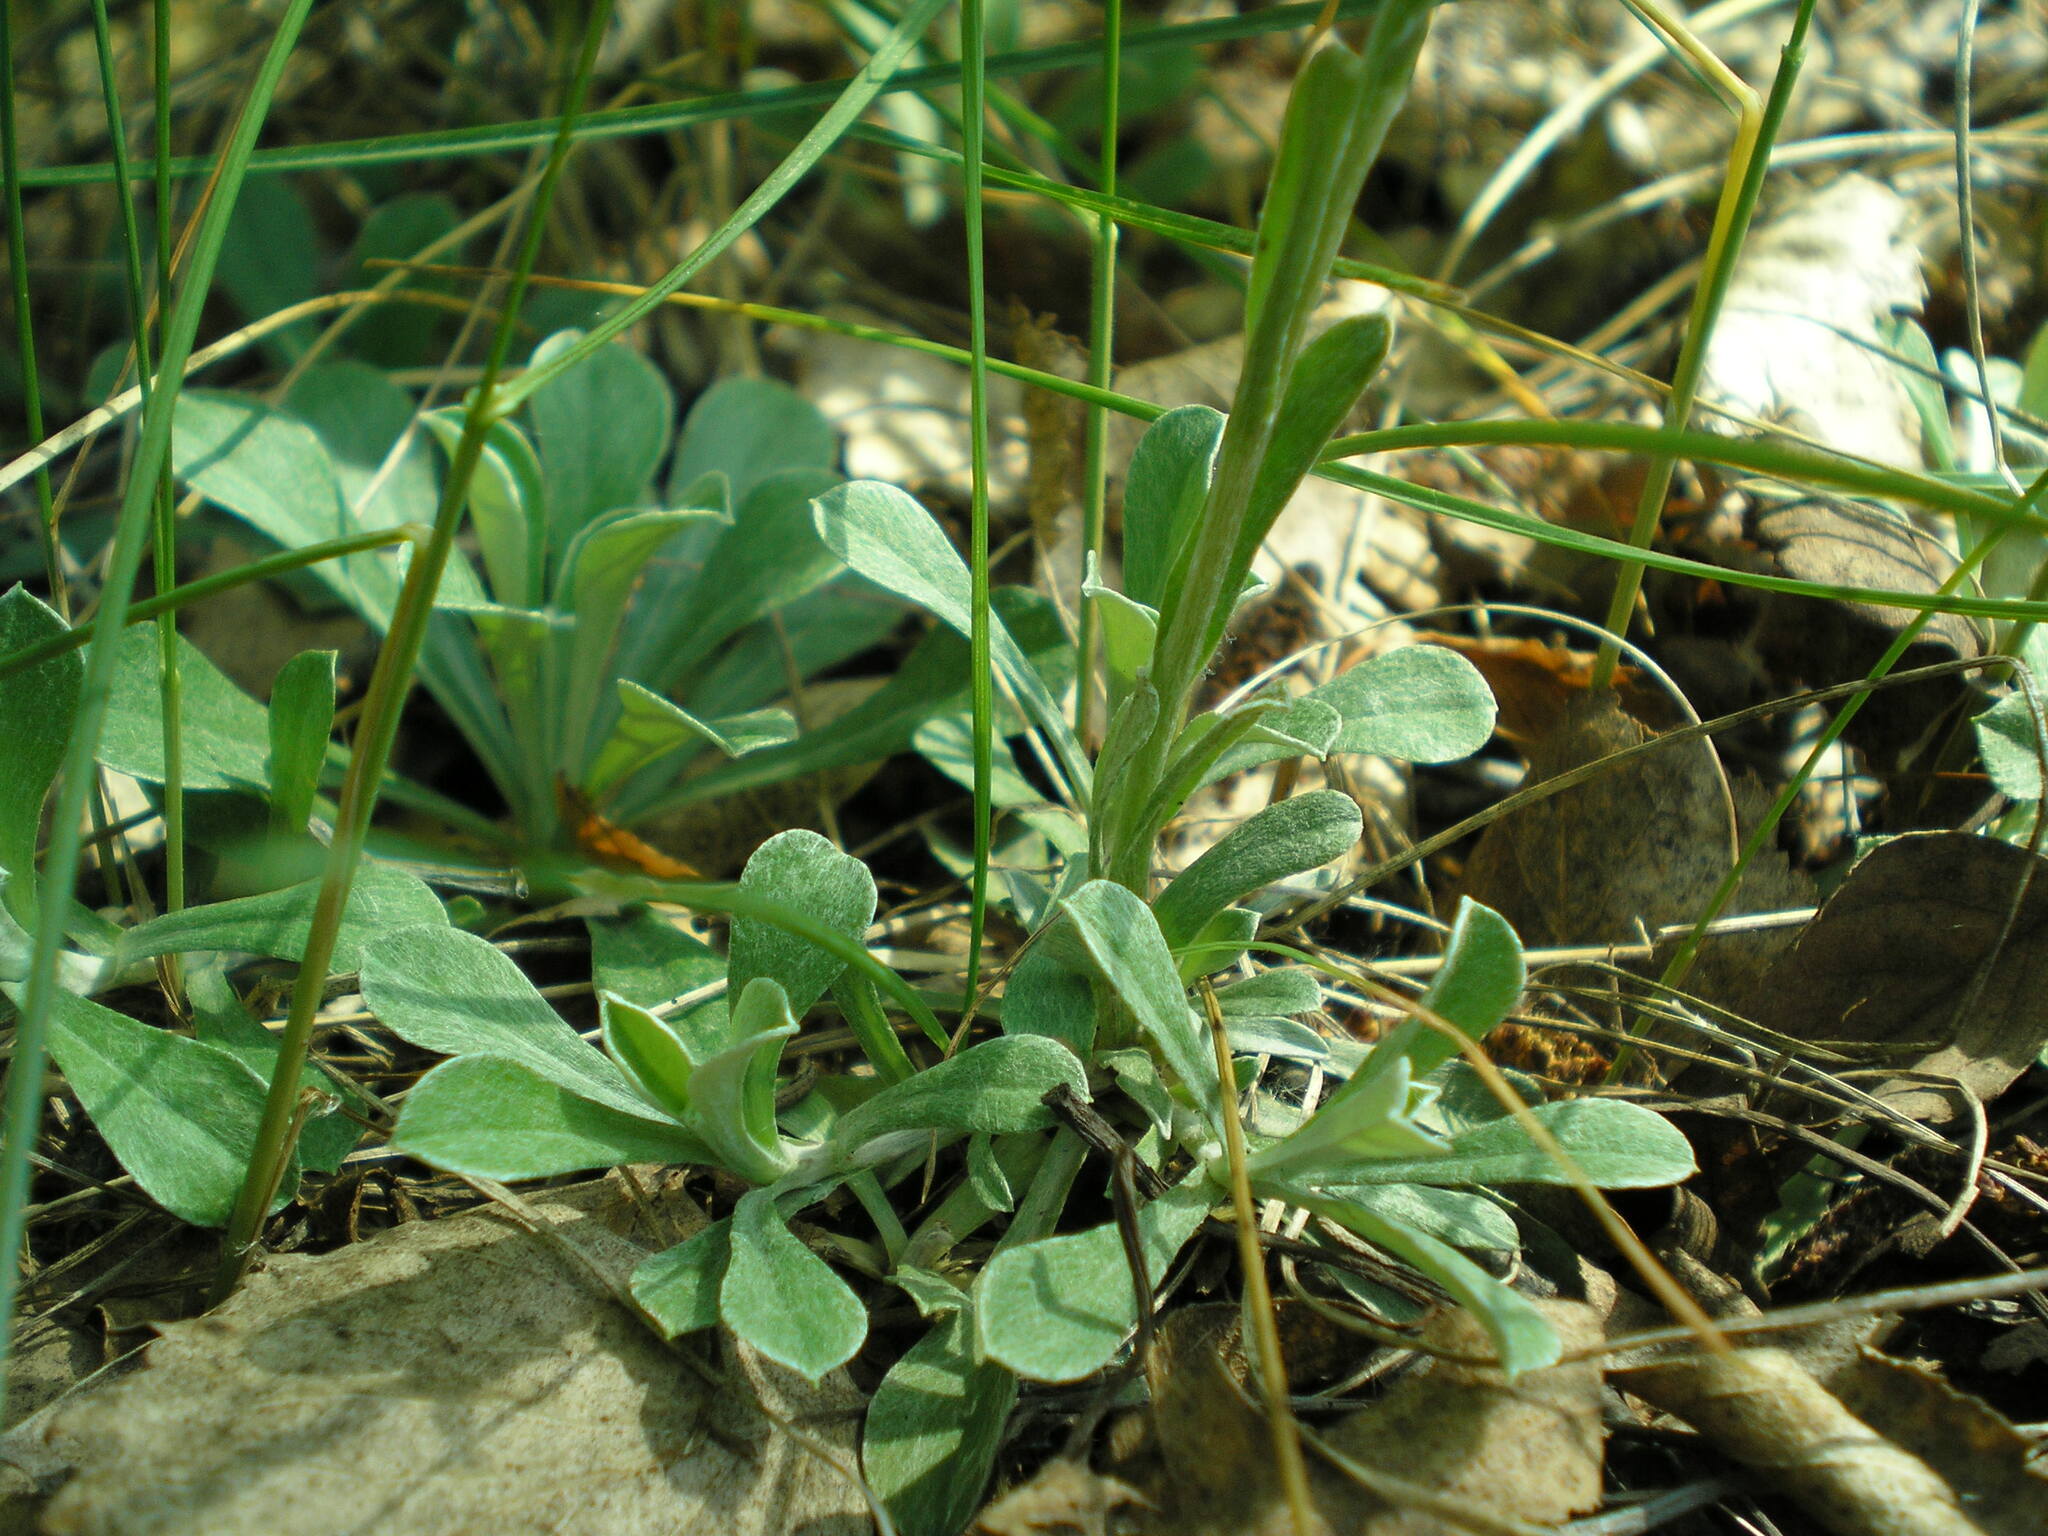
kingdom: Plantae
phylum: Tracheophyta
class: Magnoliopsida
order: Asterales
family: Asteraceae
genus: Antennaria
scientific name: Antennaria dioica
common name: Mountain everlasting
